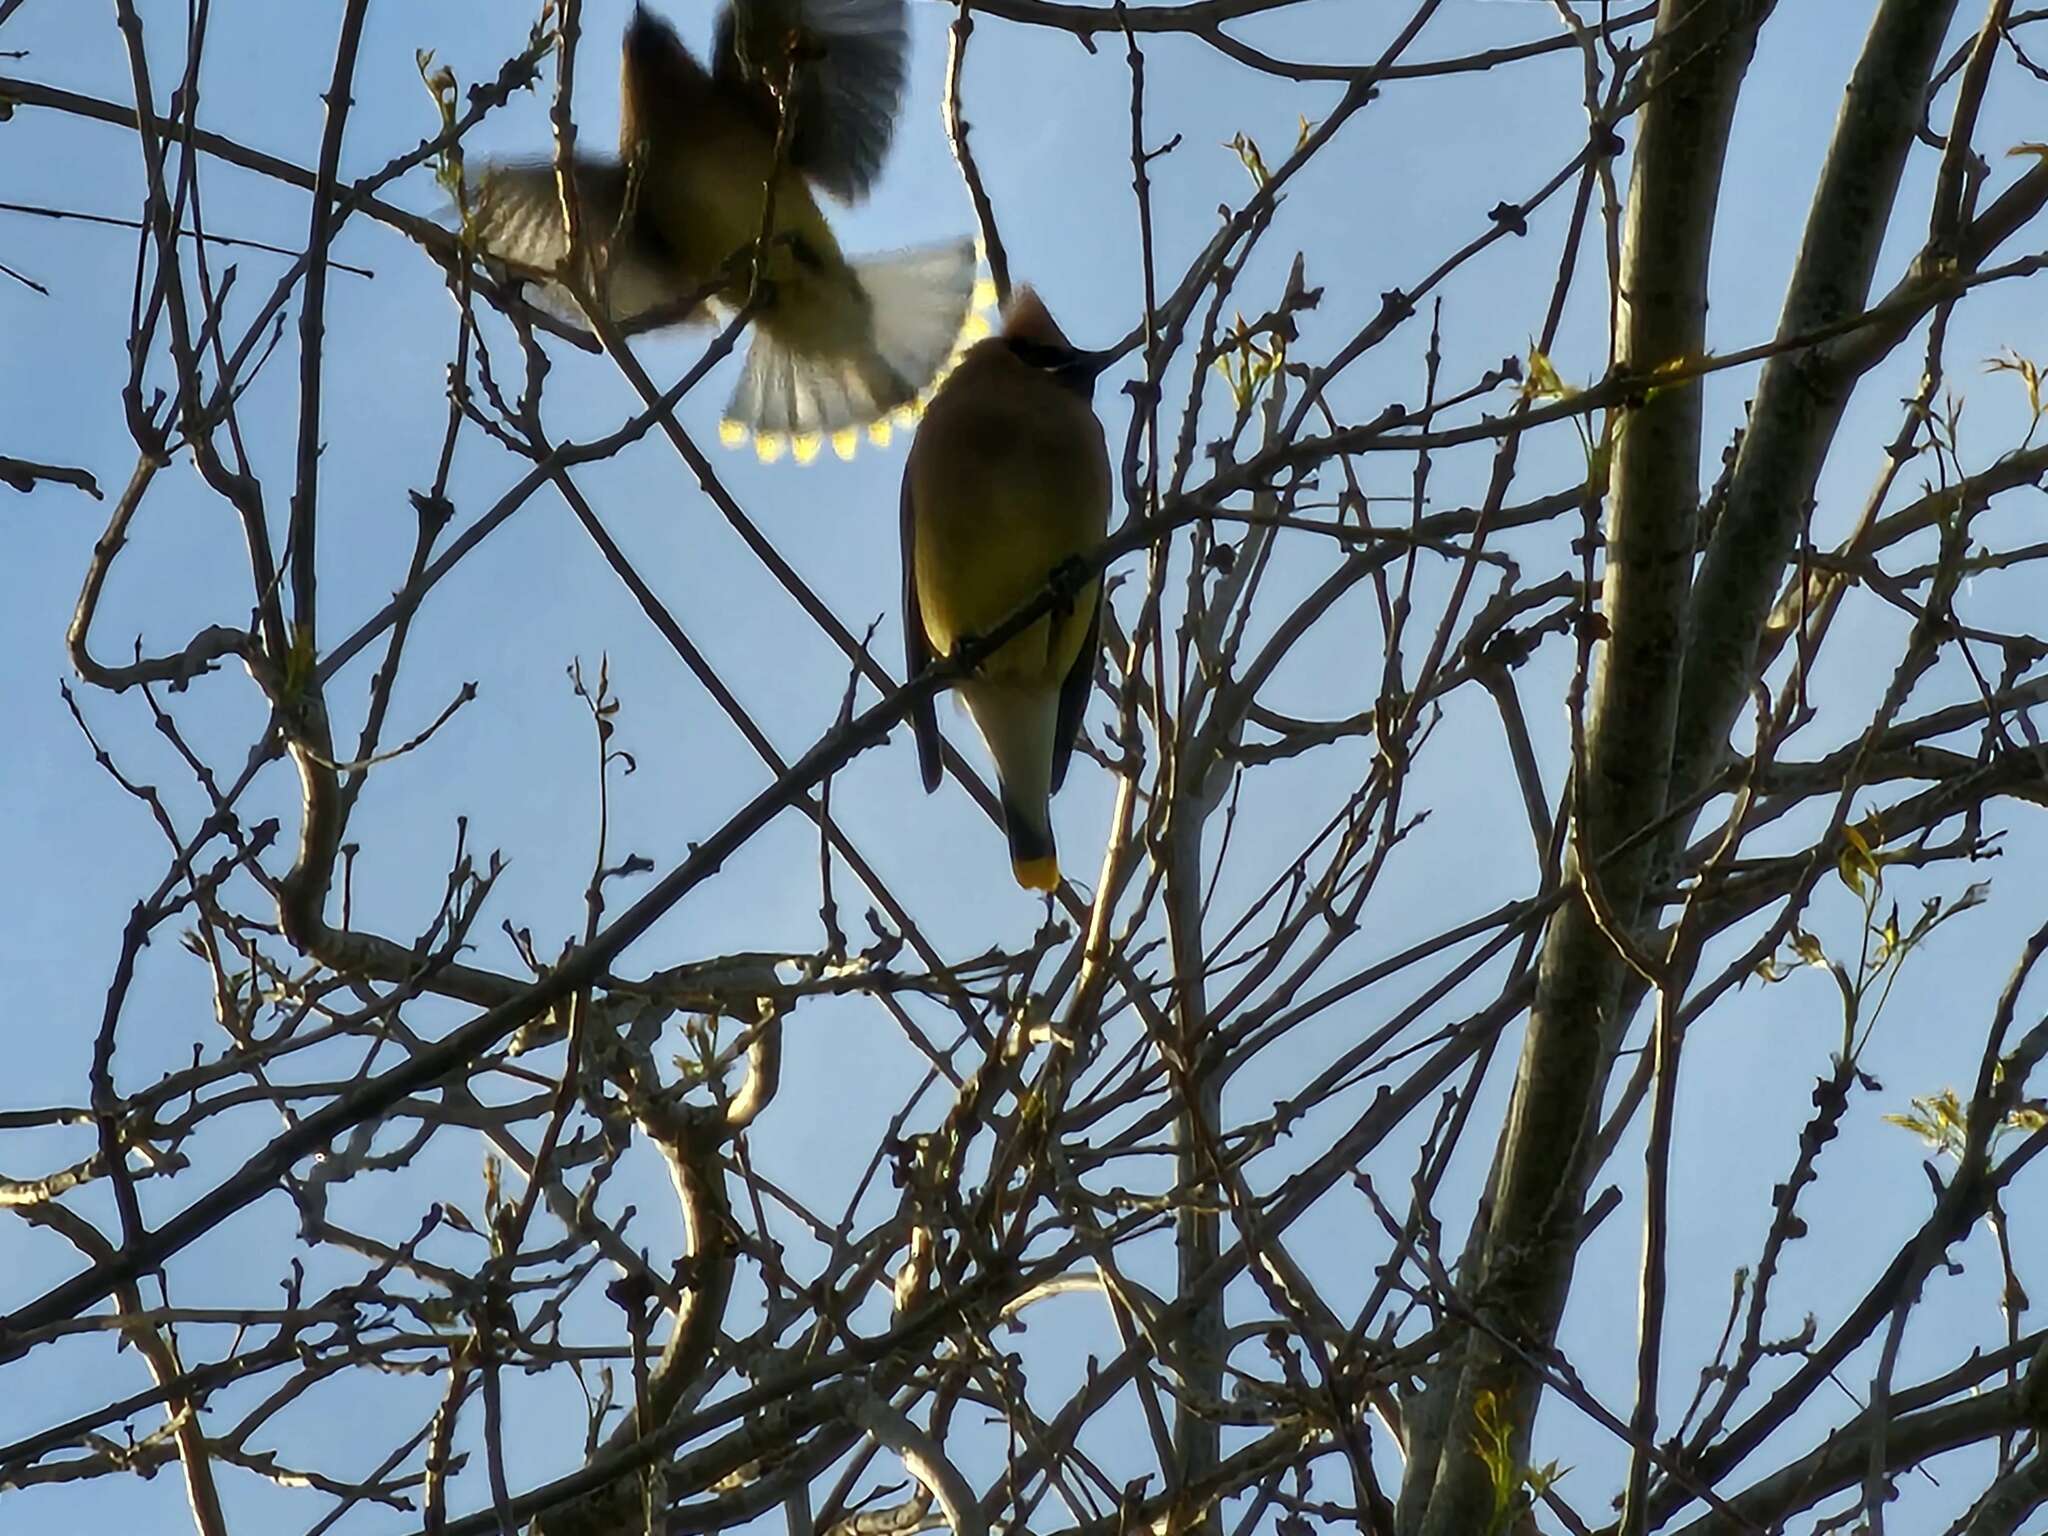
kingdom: Animalia
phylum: Chordata
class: Aves
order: Passeriformes
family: Bombycillidae
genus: Bombycilla
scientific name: Bombycilla cedrorum
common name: Cedar waxwing
